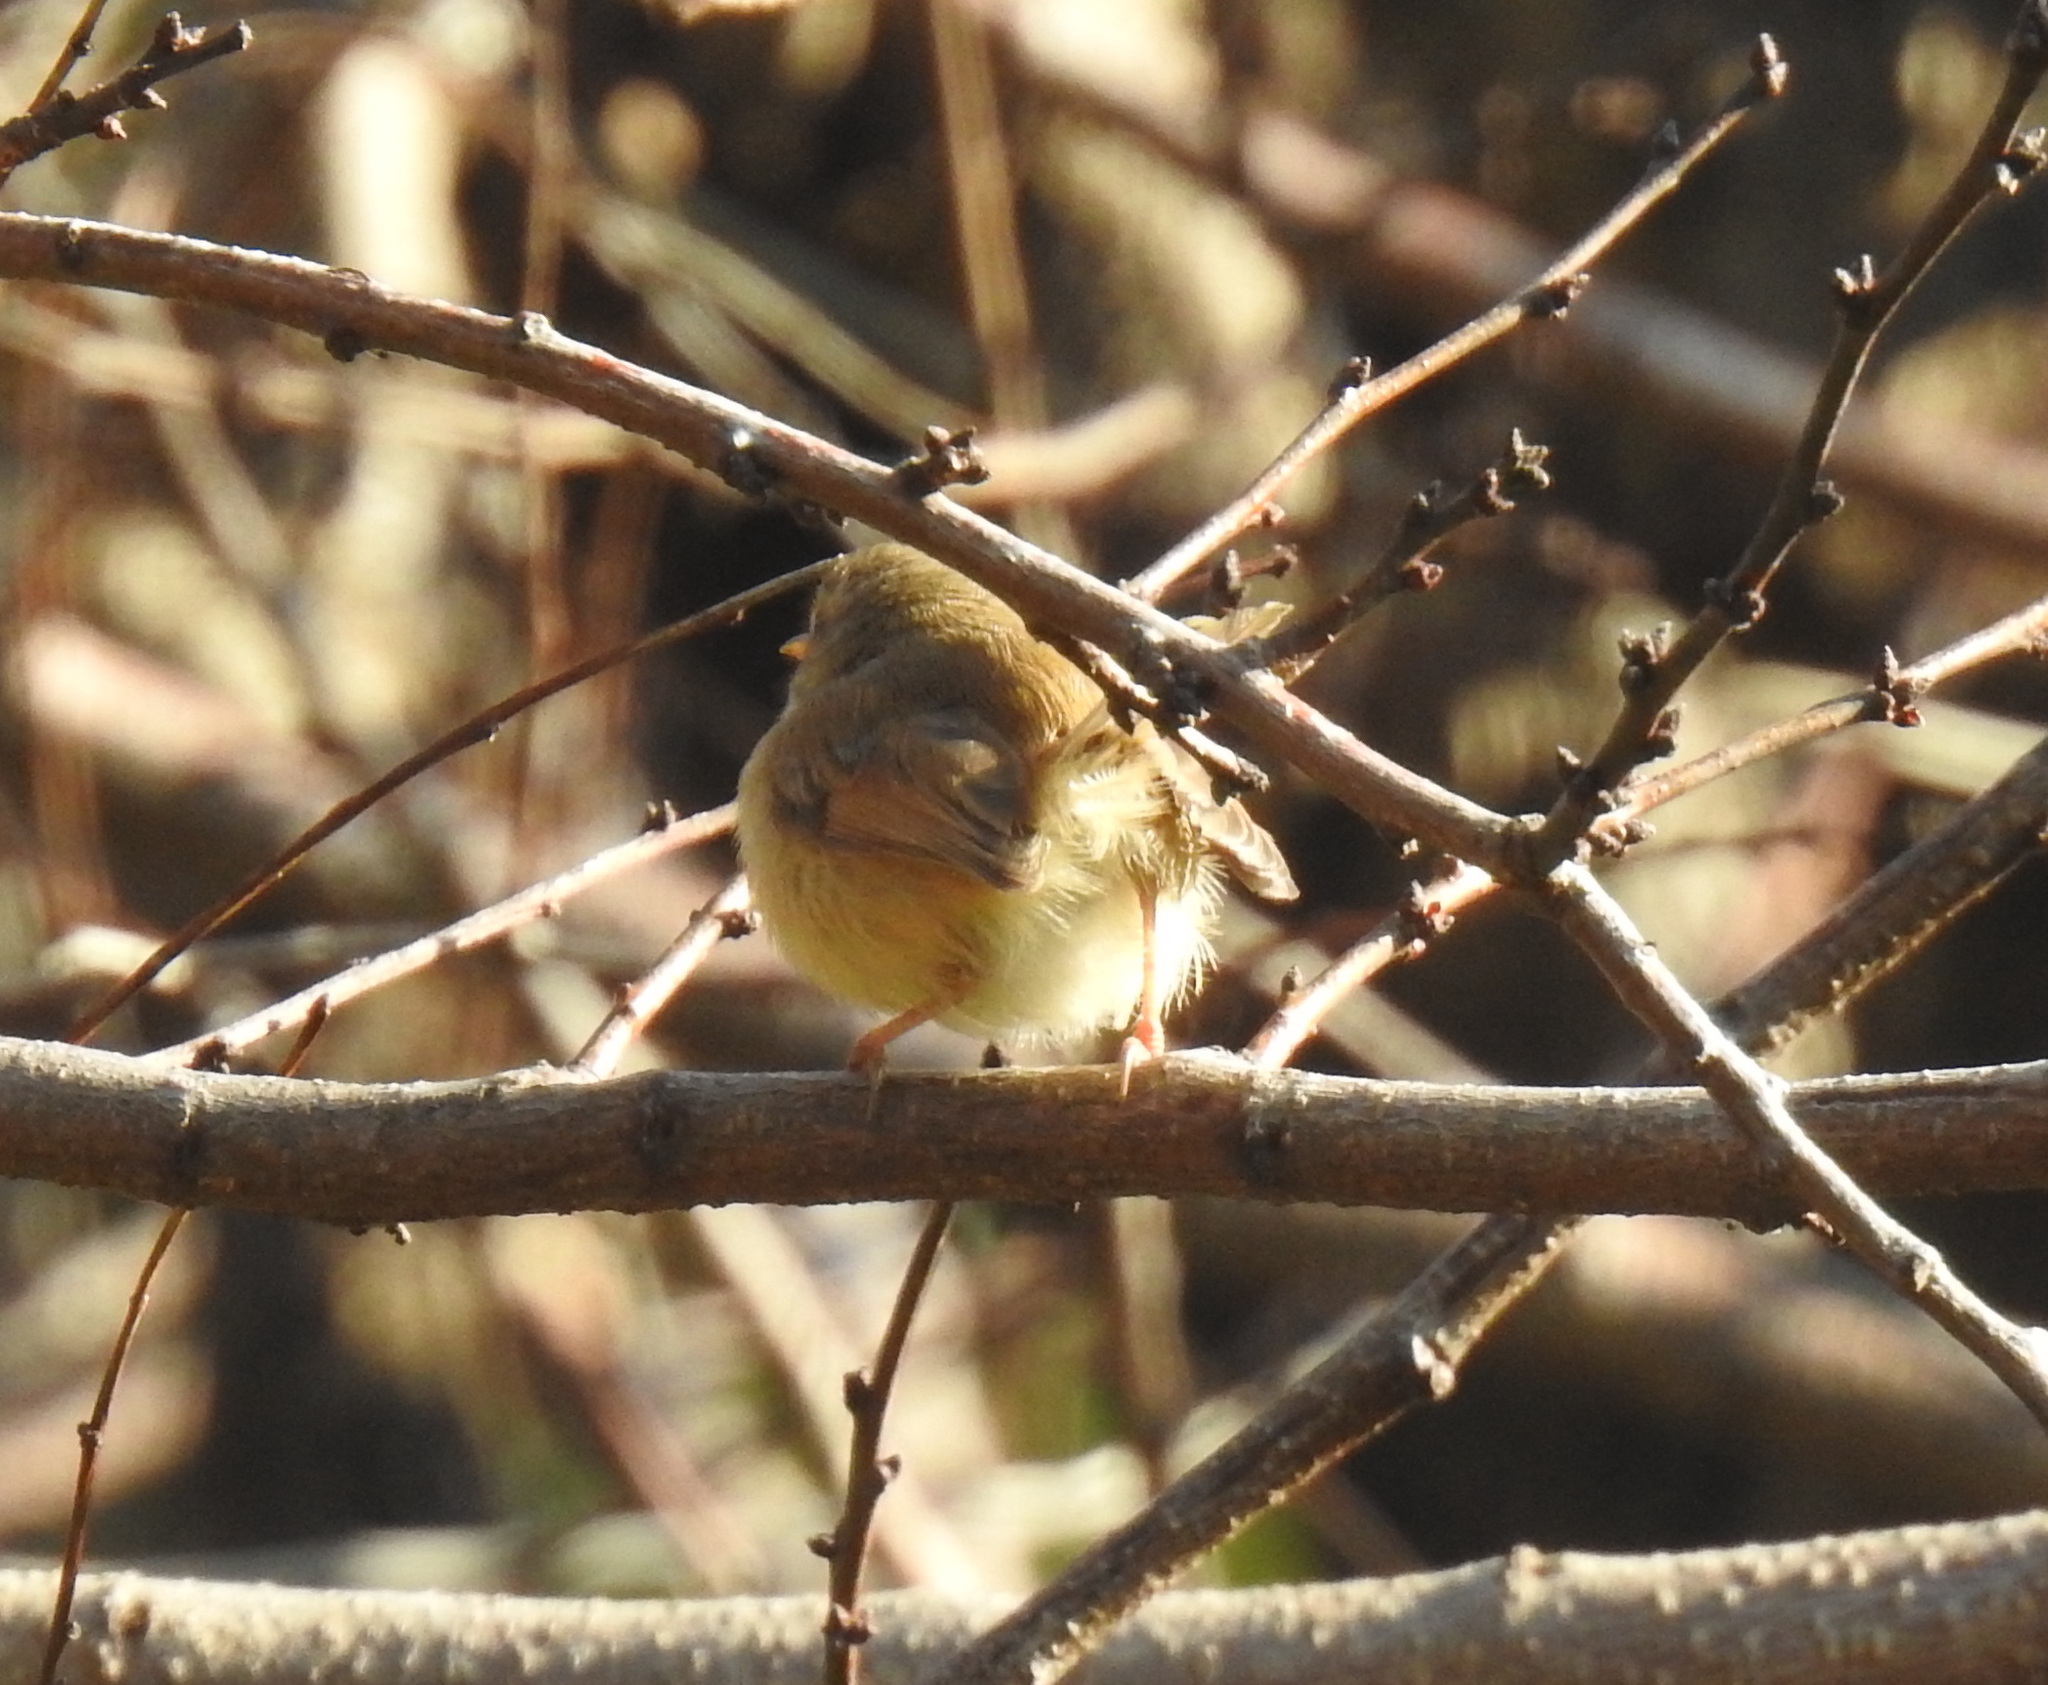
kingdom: Animalia
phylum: Chordata
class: Aves
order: Passeriformes
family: Cisticolidae
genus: Prinia
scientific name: Prinia subflava
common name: Tawny-flanked prinia
